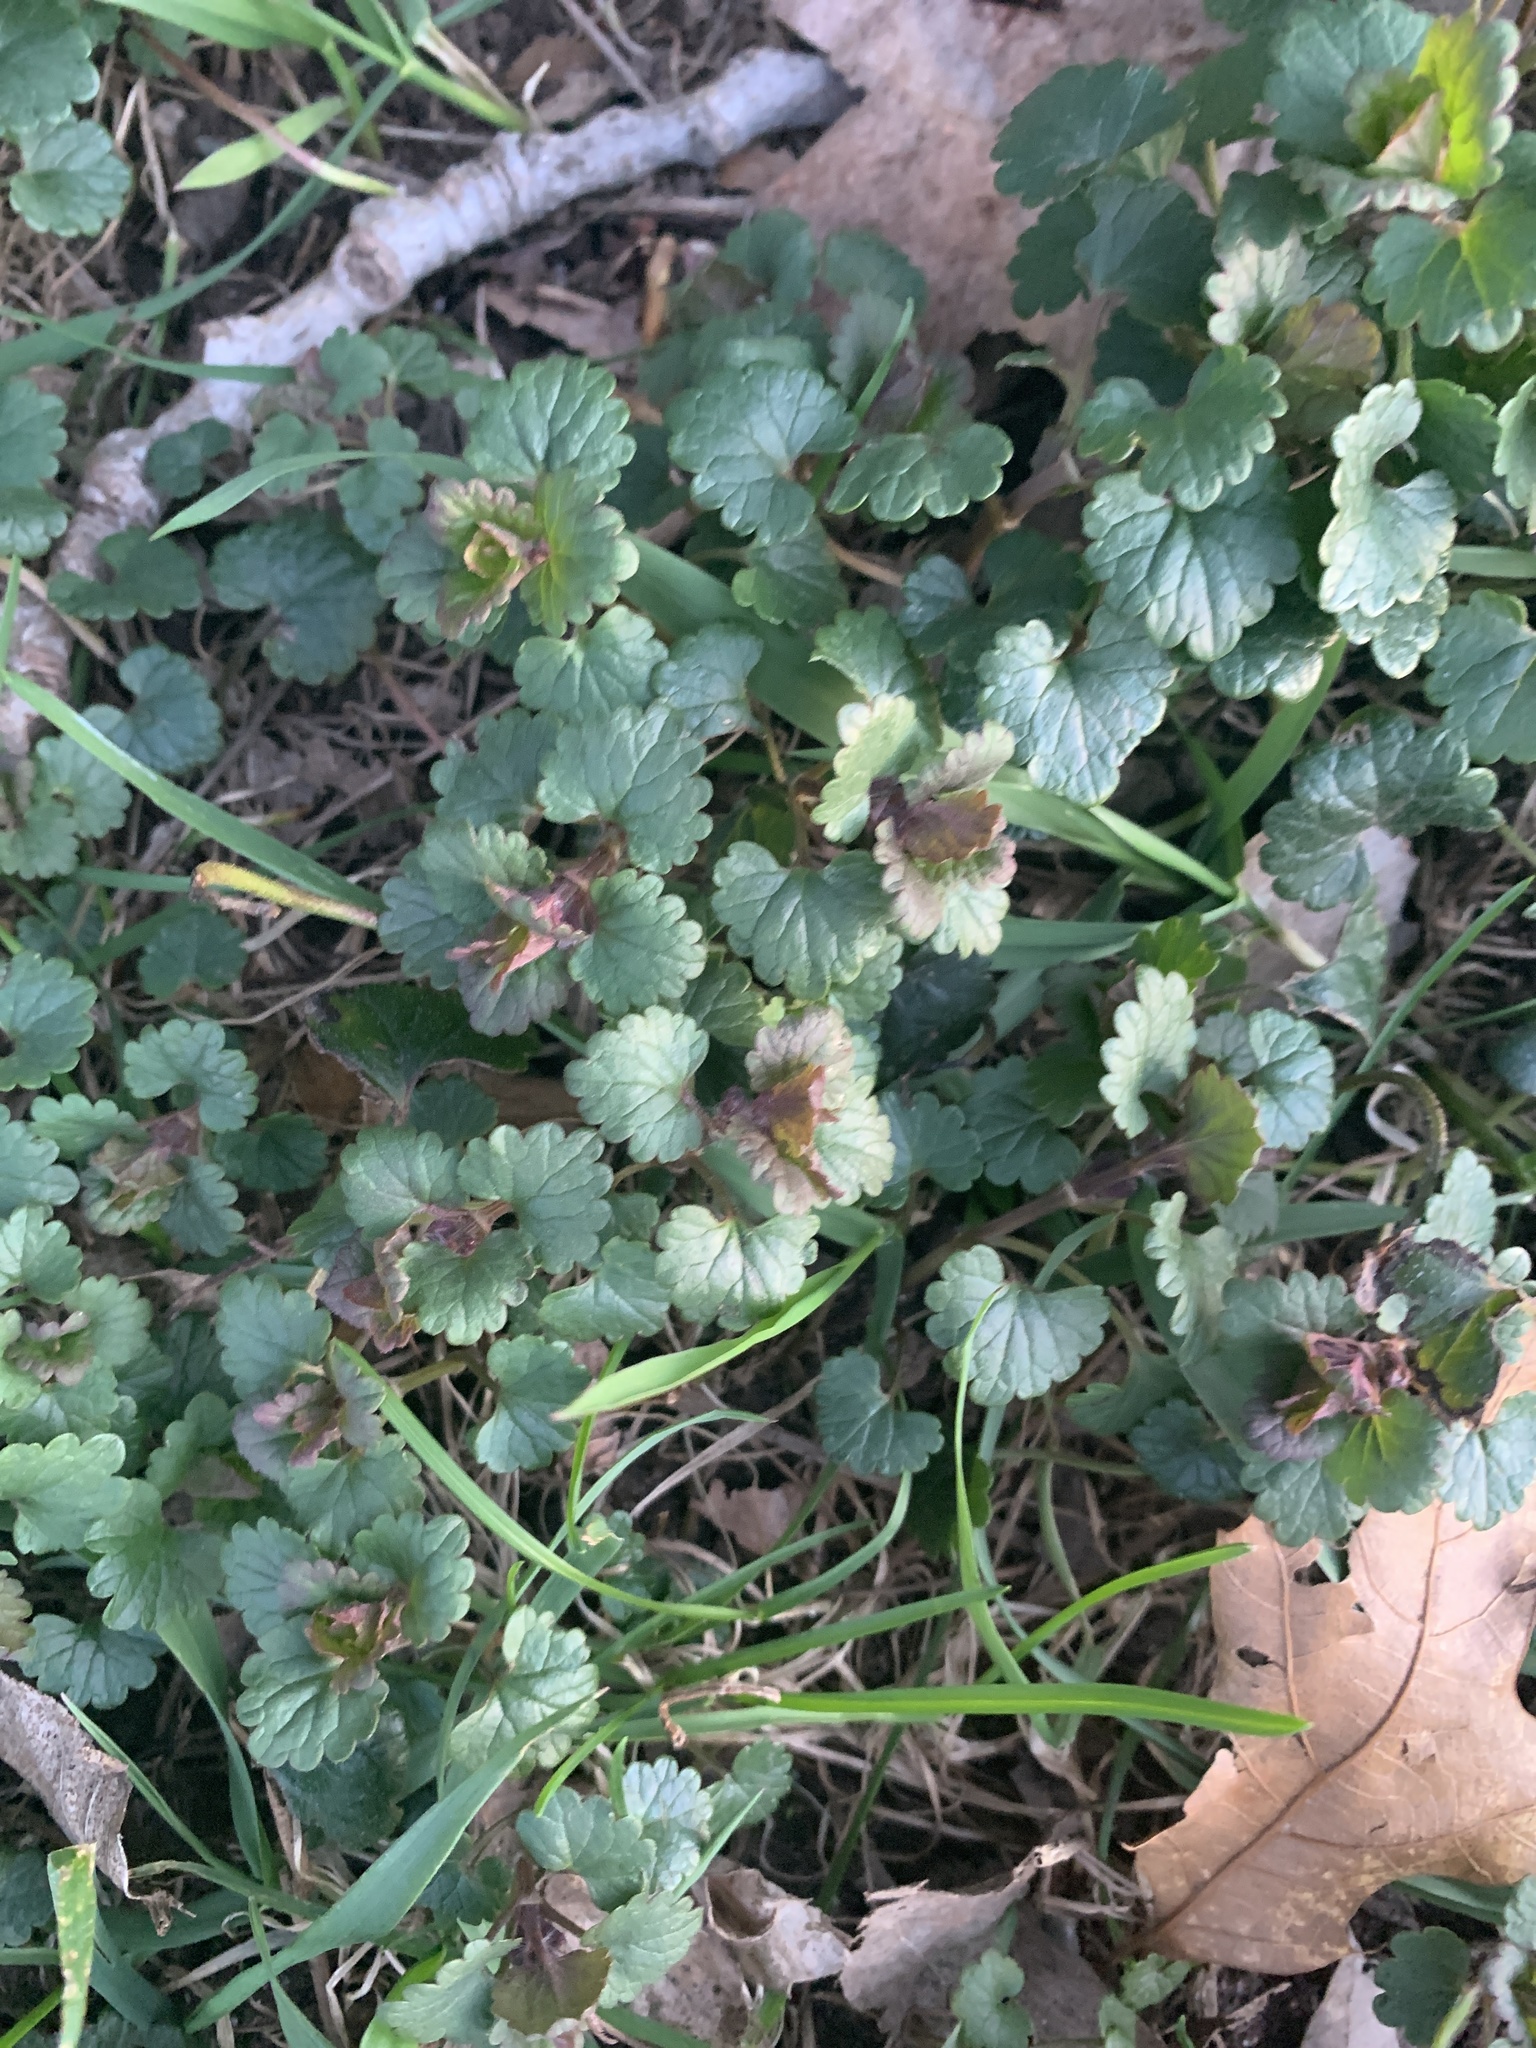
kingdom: Plantae
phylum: Tracheophyta
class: Magnoliopsida
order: Lamiales
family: Lamiaceae
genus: Glechoma
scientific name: Glechoma hederacea
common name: Ground ivy
